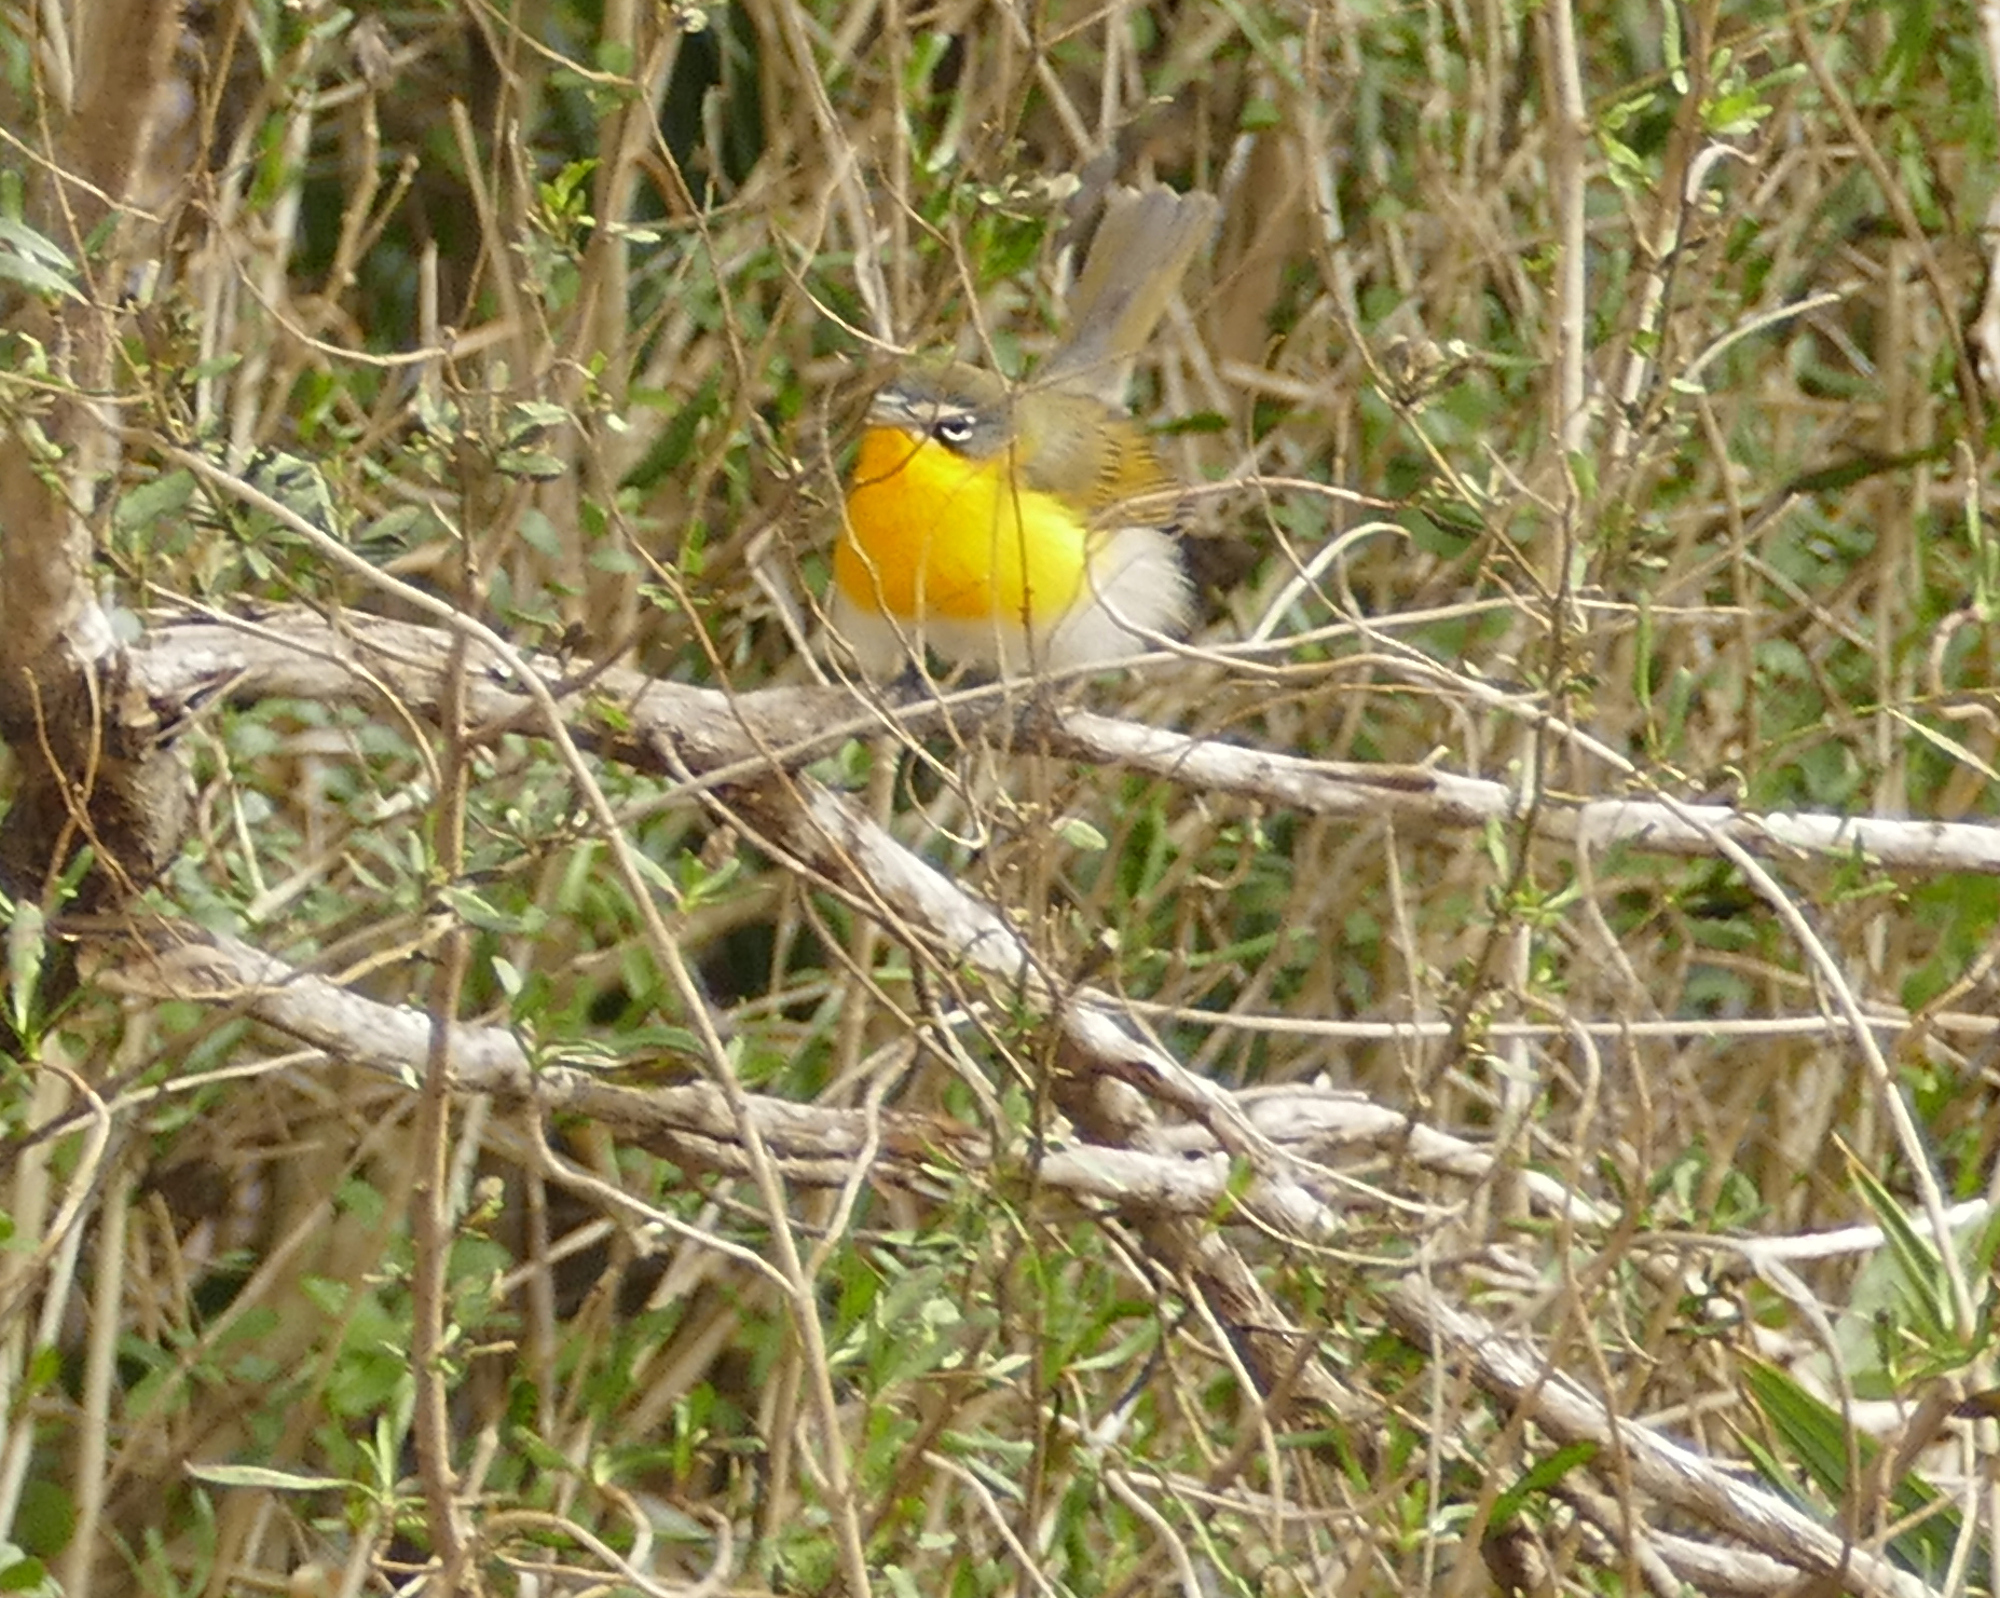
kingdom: Animalia
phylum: Chordata
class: Aves
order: Passeriformes
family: Parulidae
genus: Icteria
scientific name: Icteria virens
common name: Yellow-breasted chat
